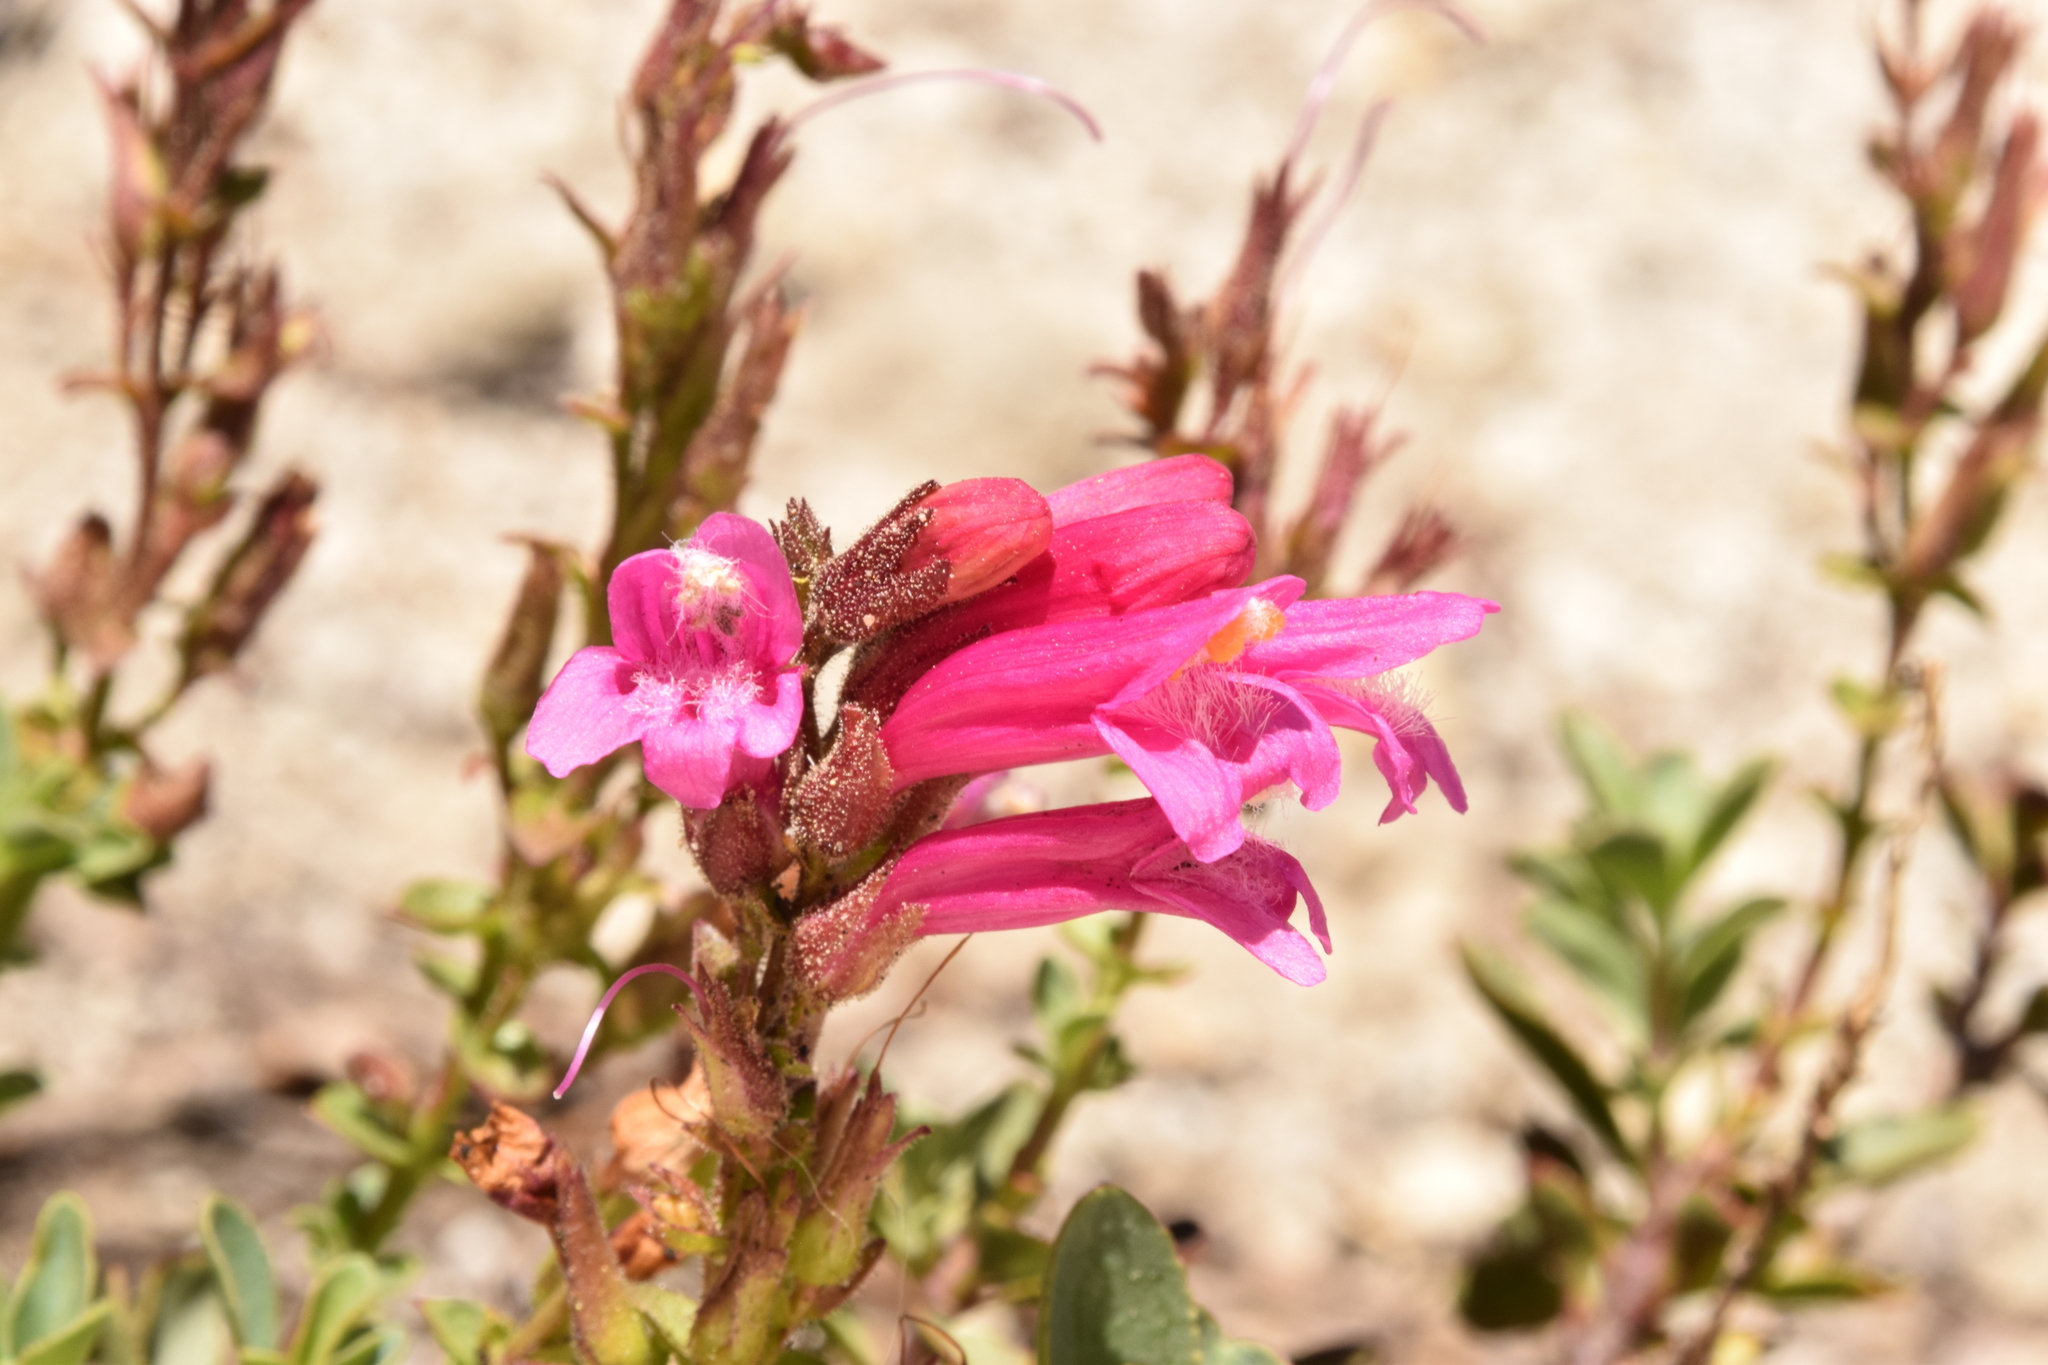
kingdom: Plantae
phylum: Tracheophyta
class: Magnoliopsida
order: Lamiales
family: Plantaginaceae
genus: Penstemon
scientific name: Penstemon newberryi
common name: Mountain-pride
